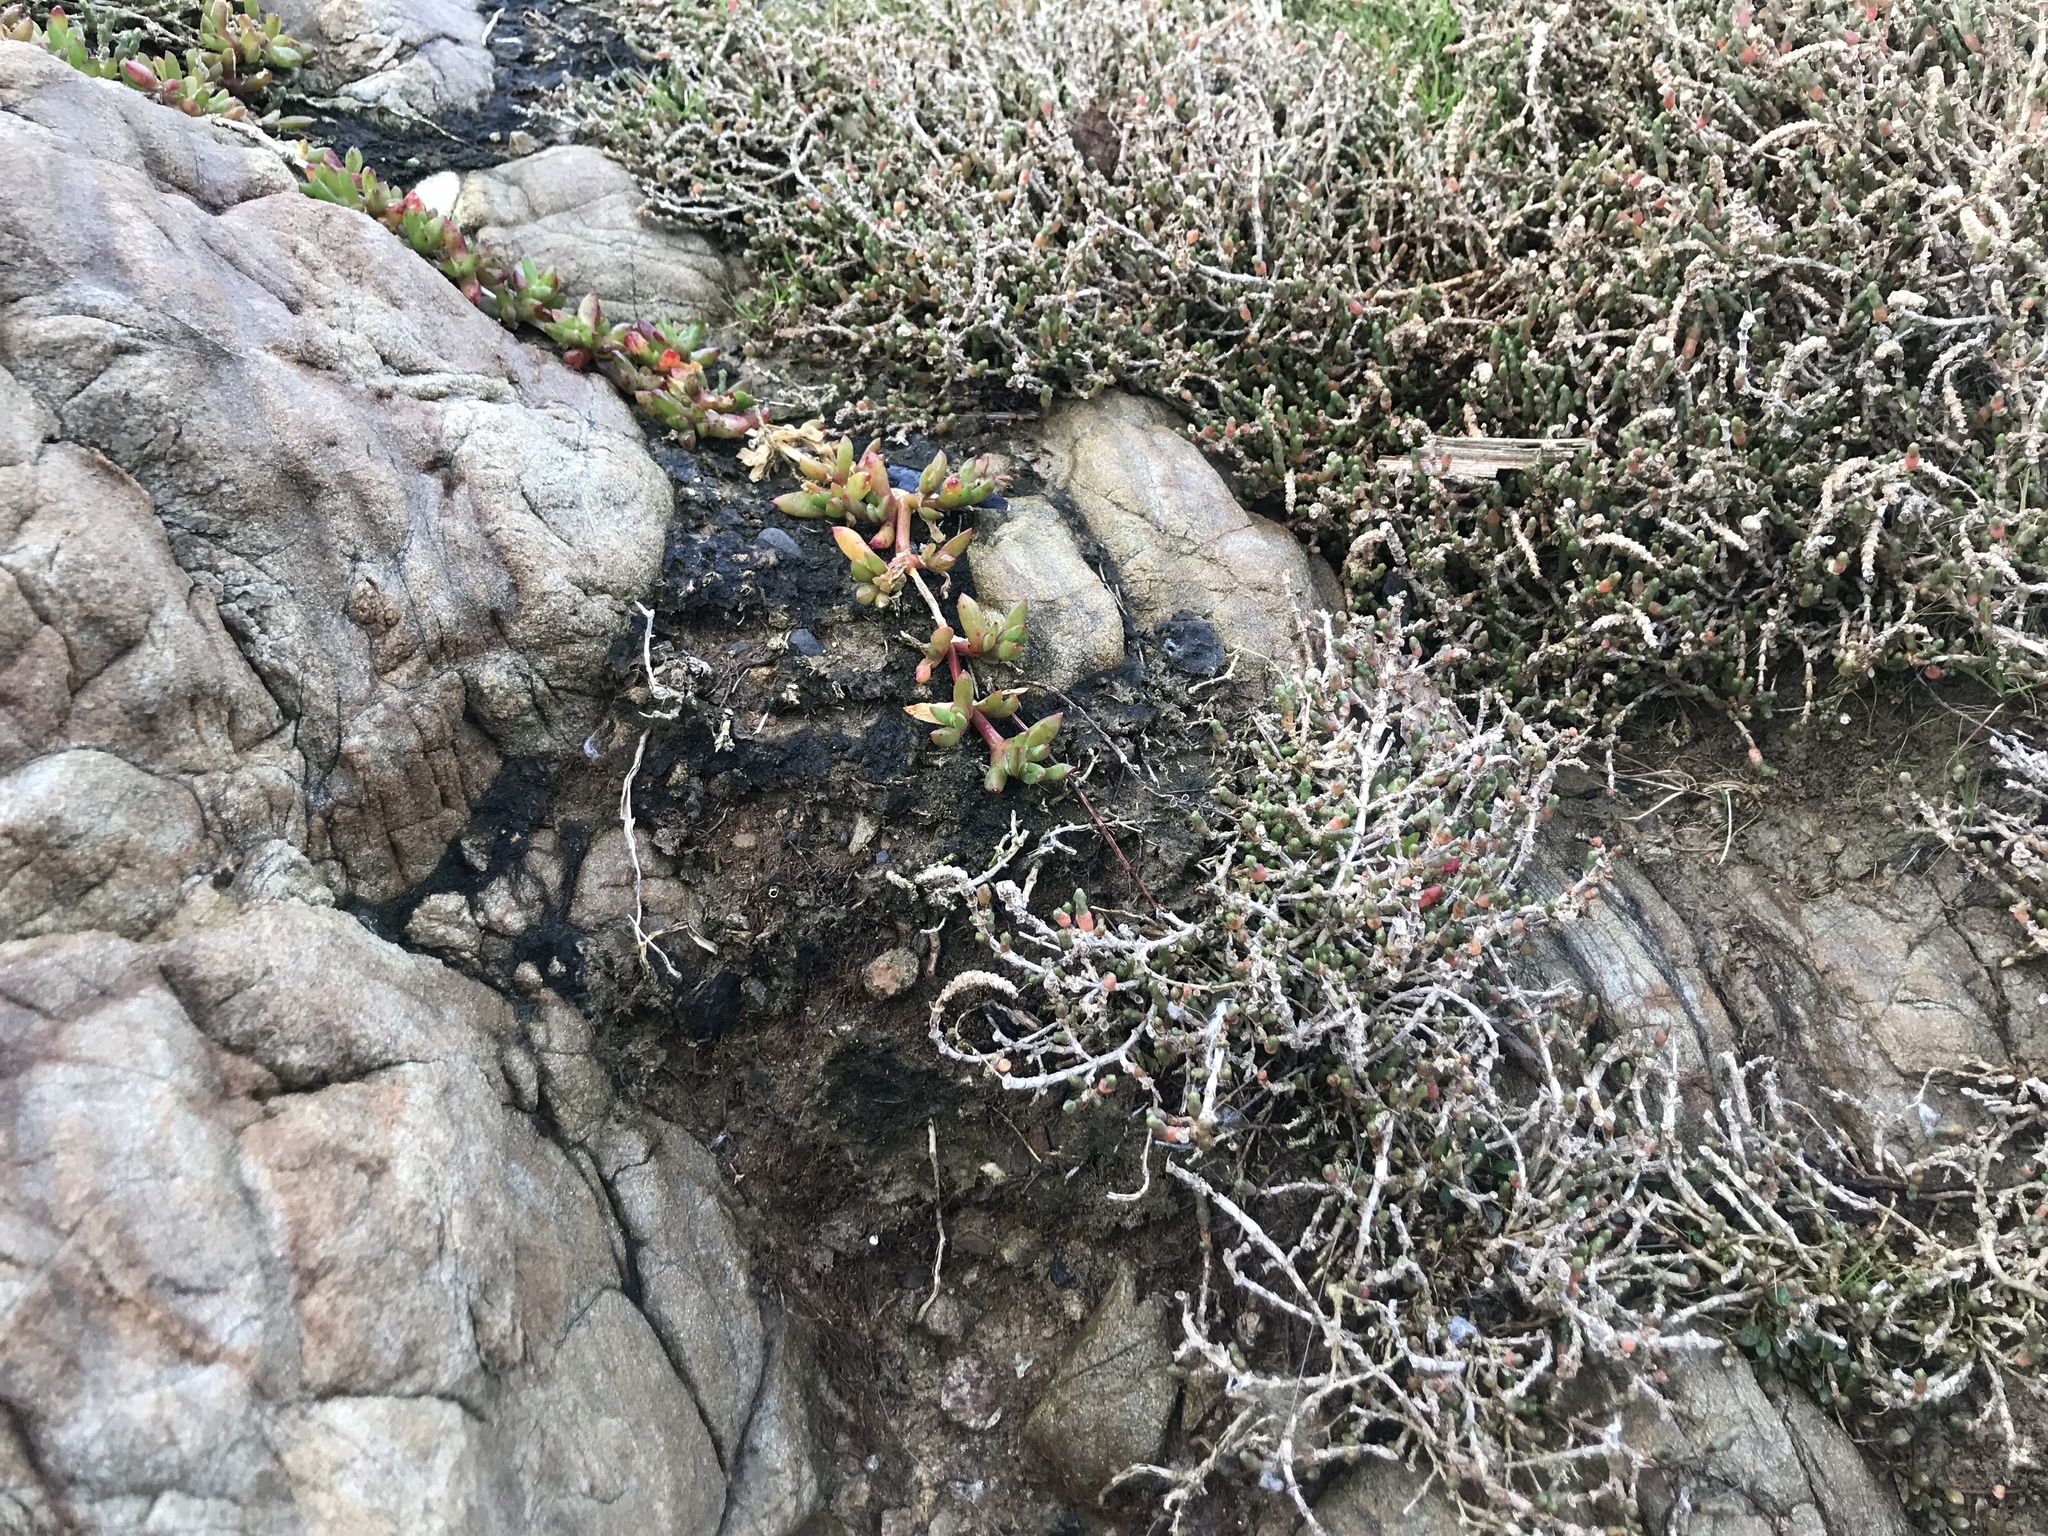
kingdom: Plantae
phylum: Tracheophyta
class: Magnoliopsida
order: Caryophyllales
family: Amaranthaceae
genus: Salicornia
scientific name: Salicornia quinqueflora
